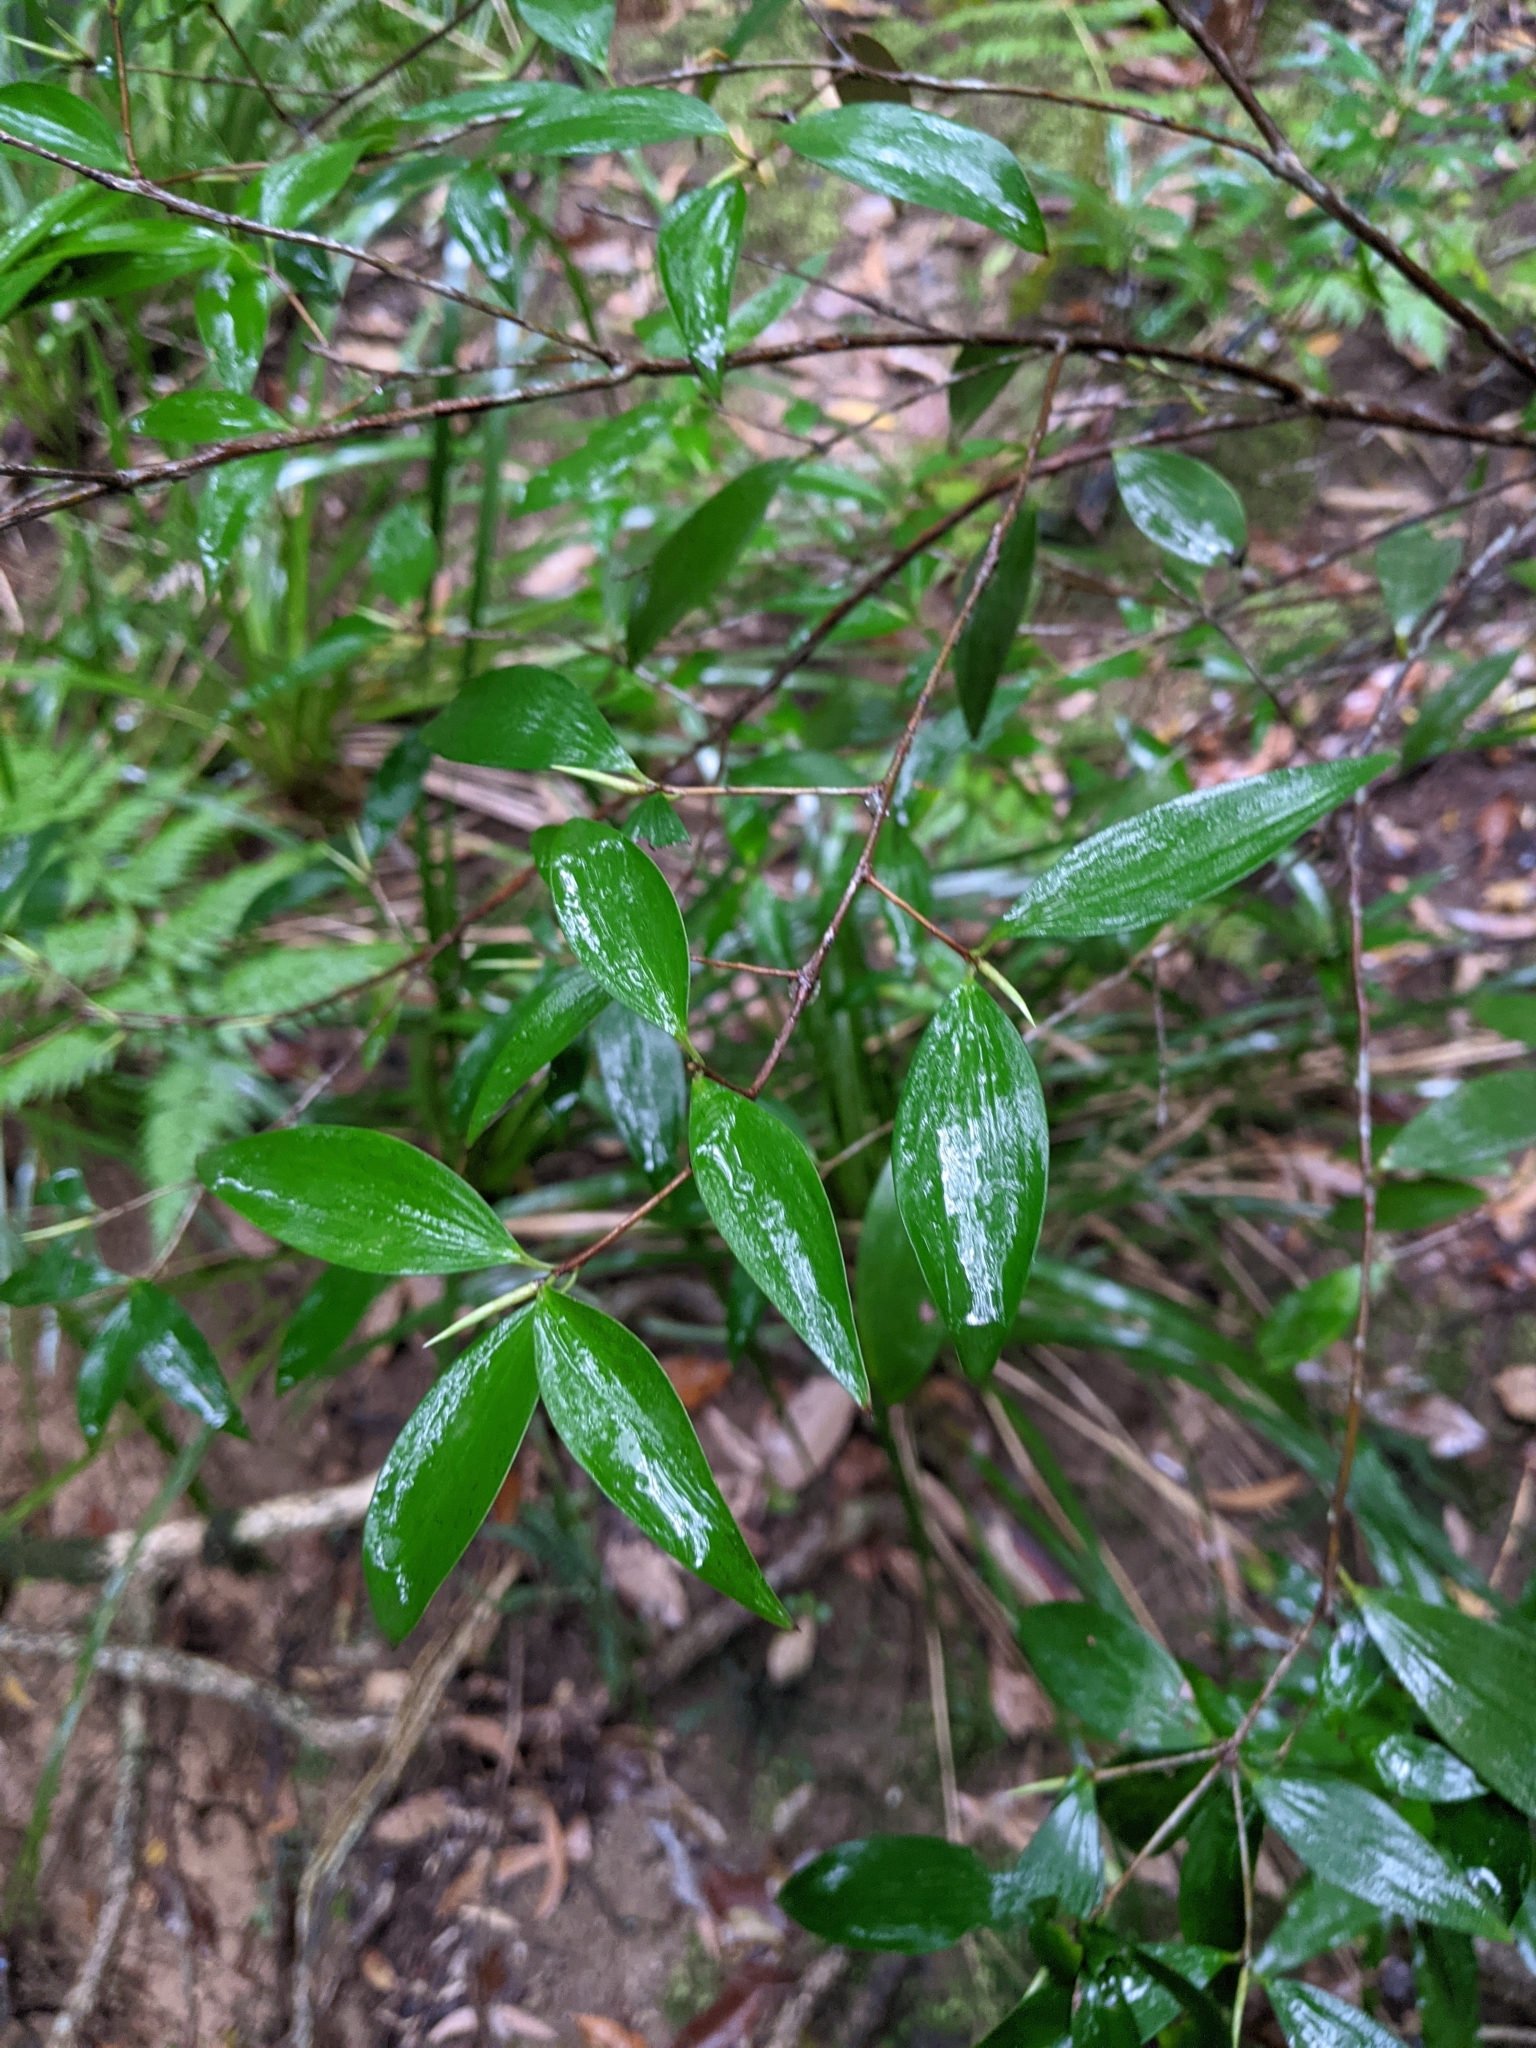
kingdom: Plantae
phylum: Tracheophyta
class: Magnoliopsida
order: Ericales
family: Ericaceae
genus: Trochocarpa
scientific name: Trochocarpa laurina
